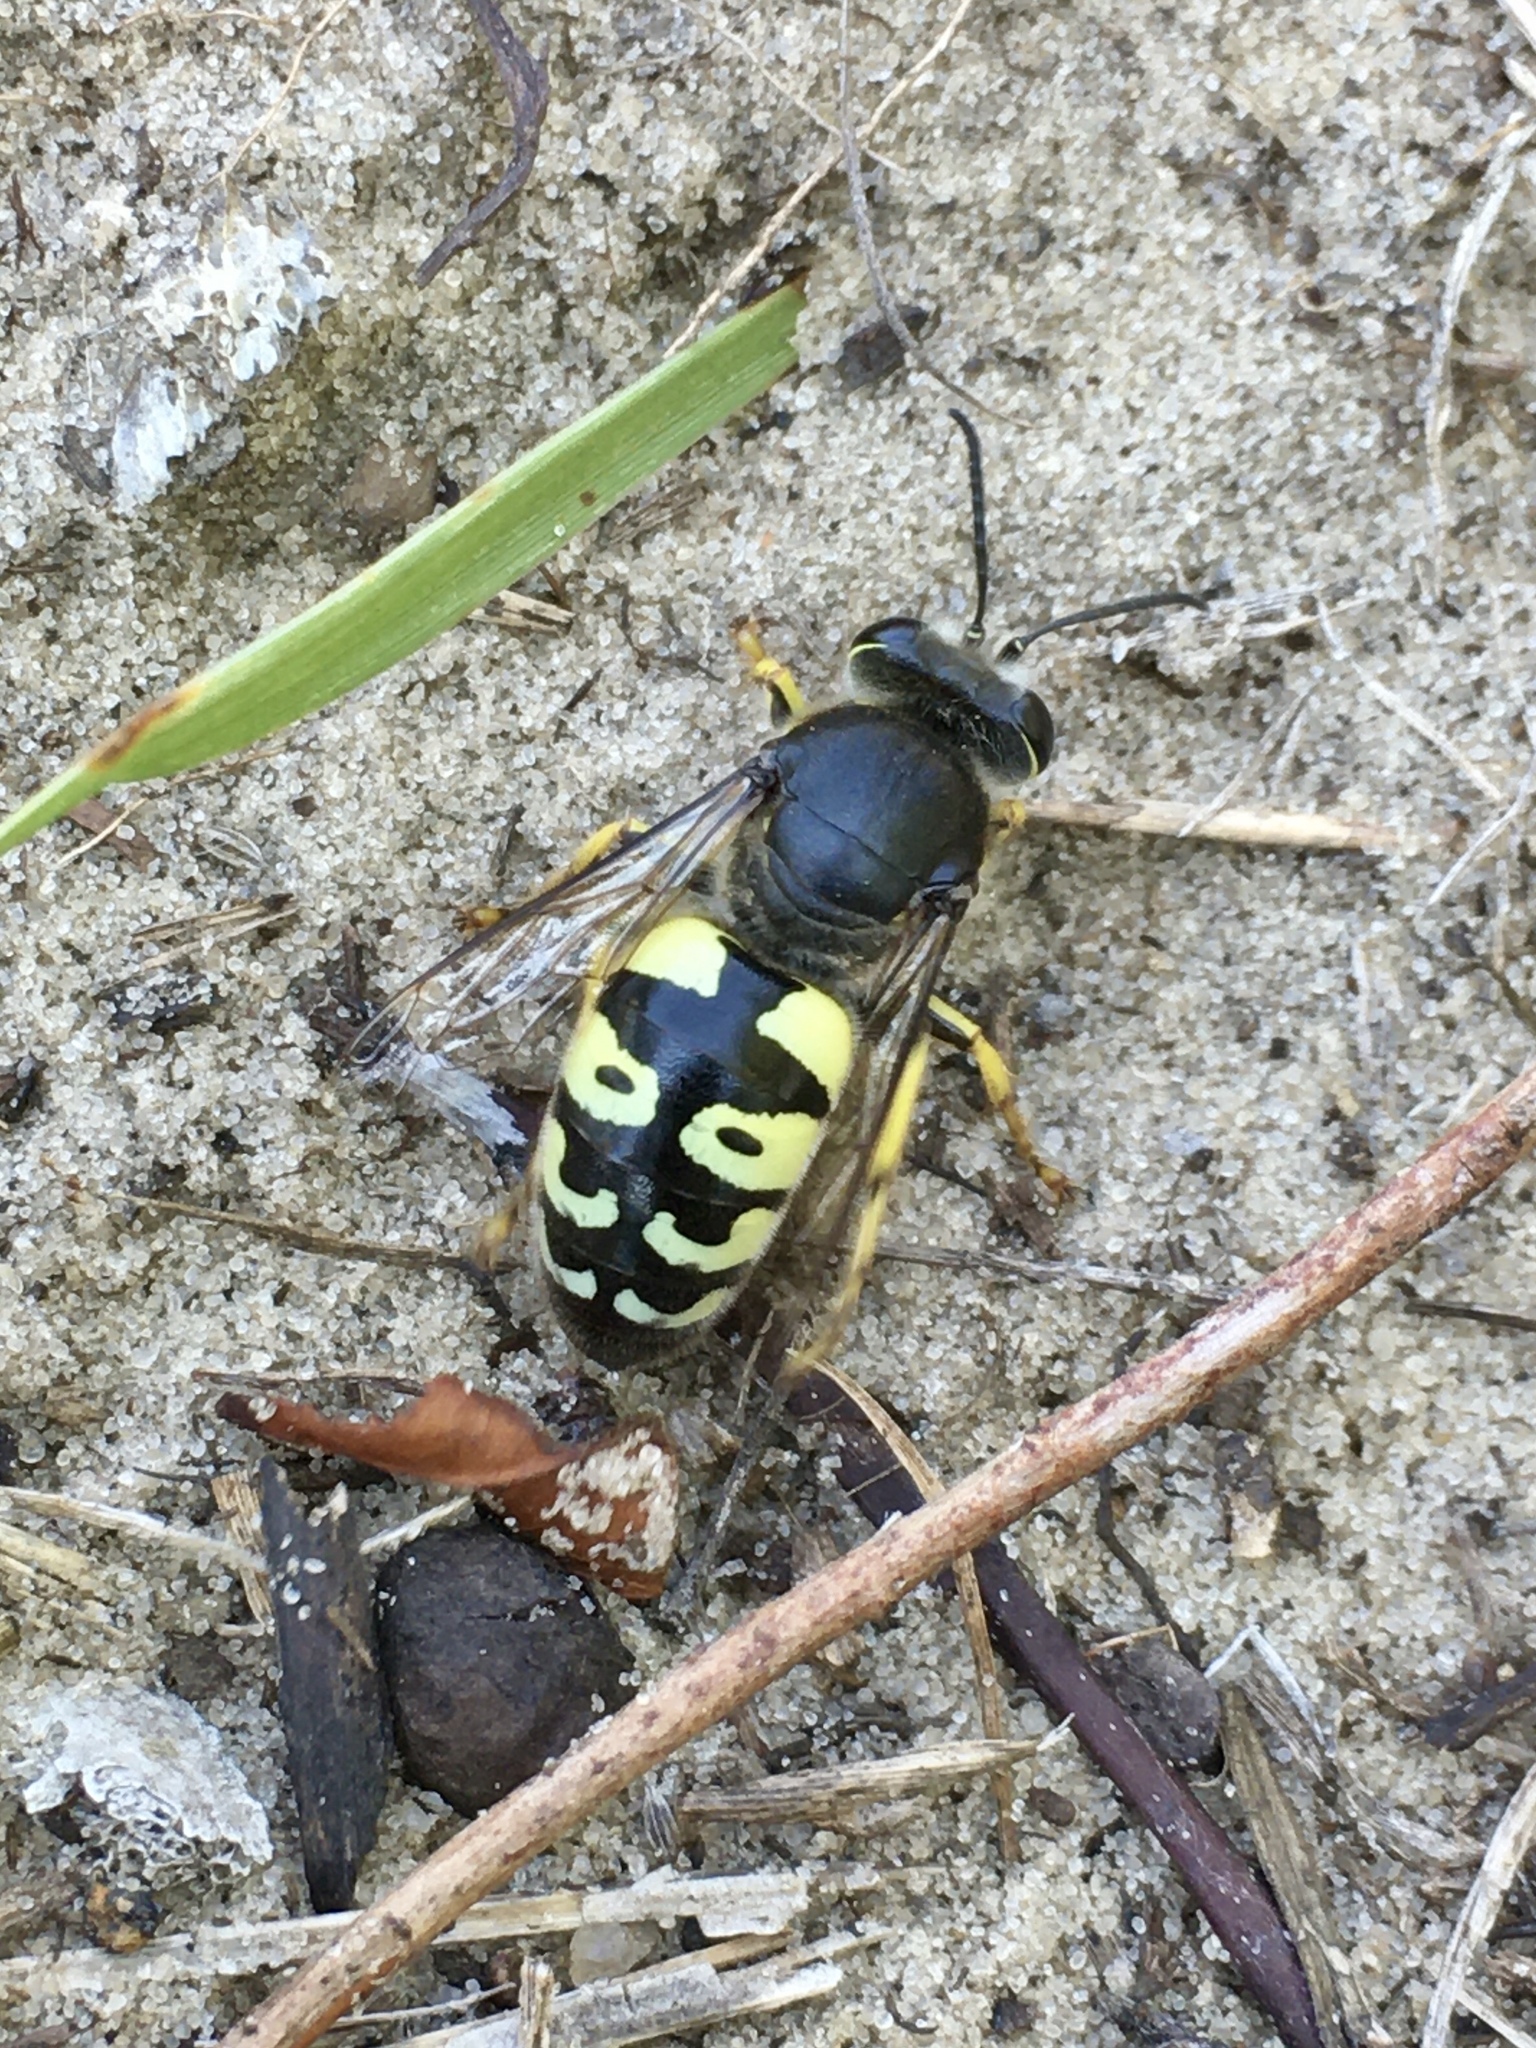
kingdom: Animalia
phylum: Arthropoda
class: Insecta
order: Hymenoptera
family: Crabronidae
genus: Bembix
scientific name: Bembix belfragei
